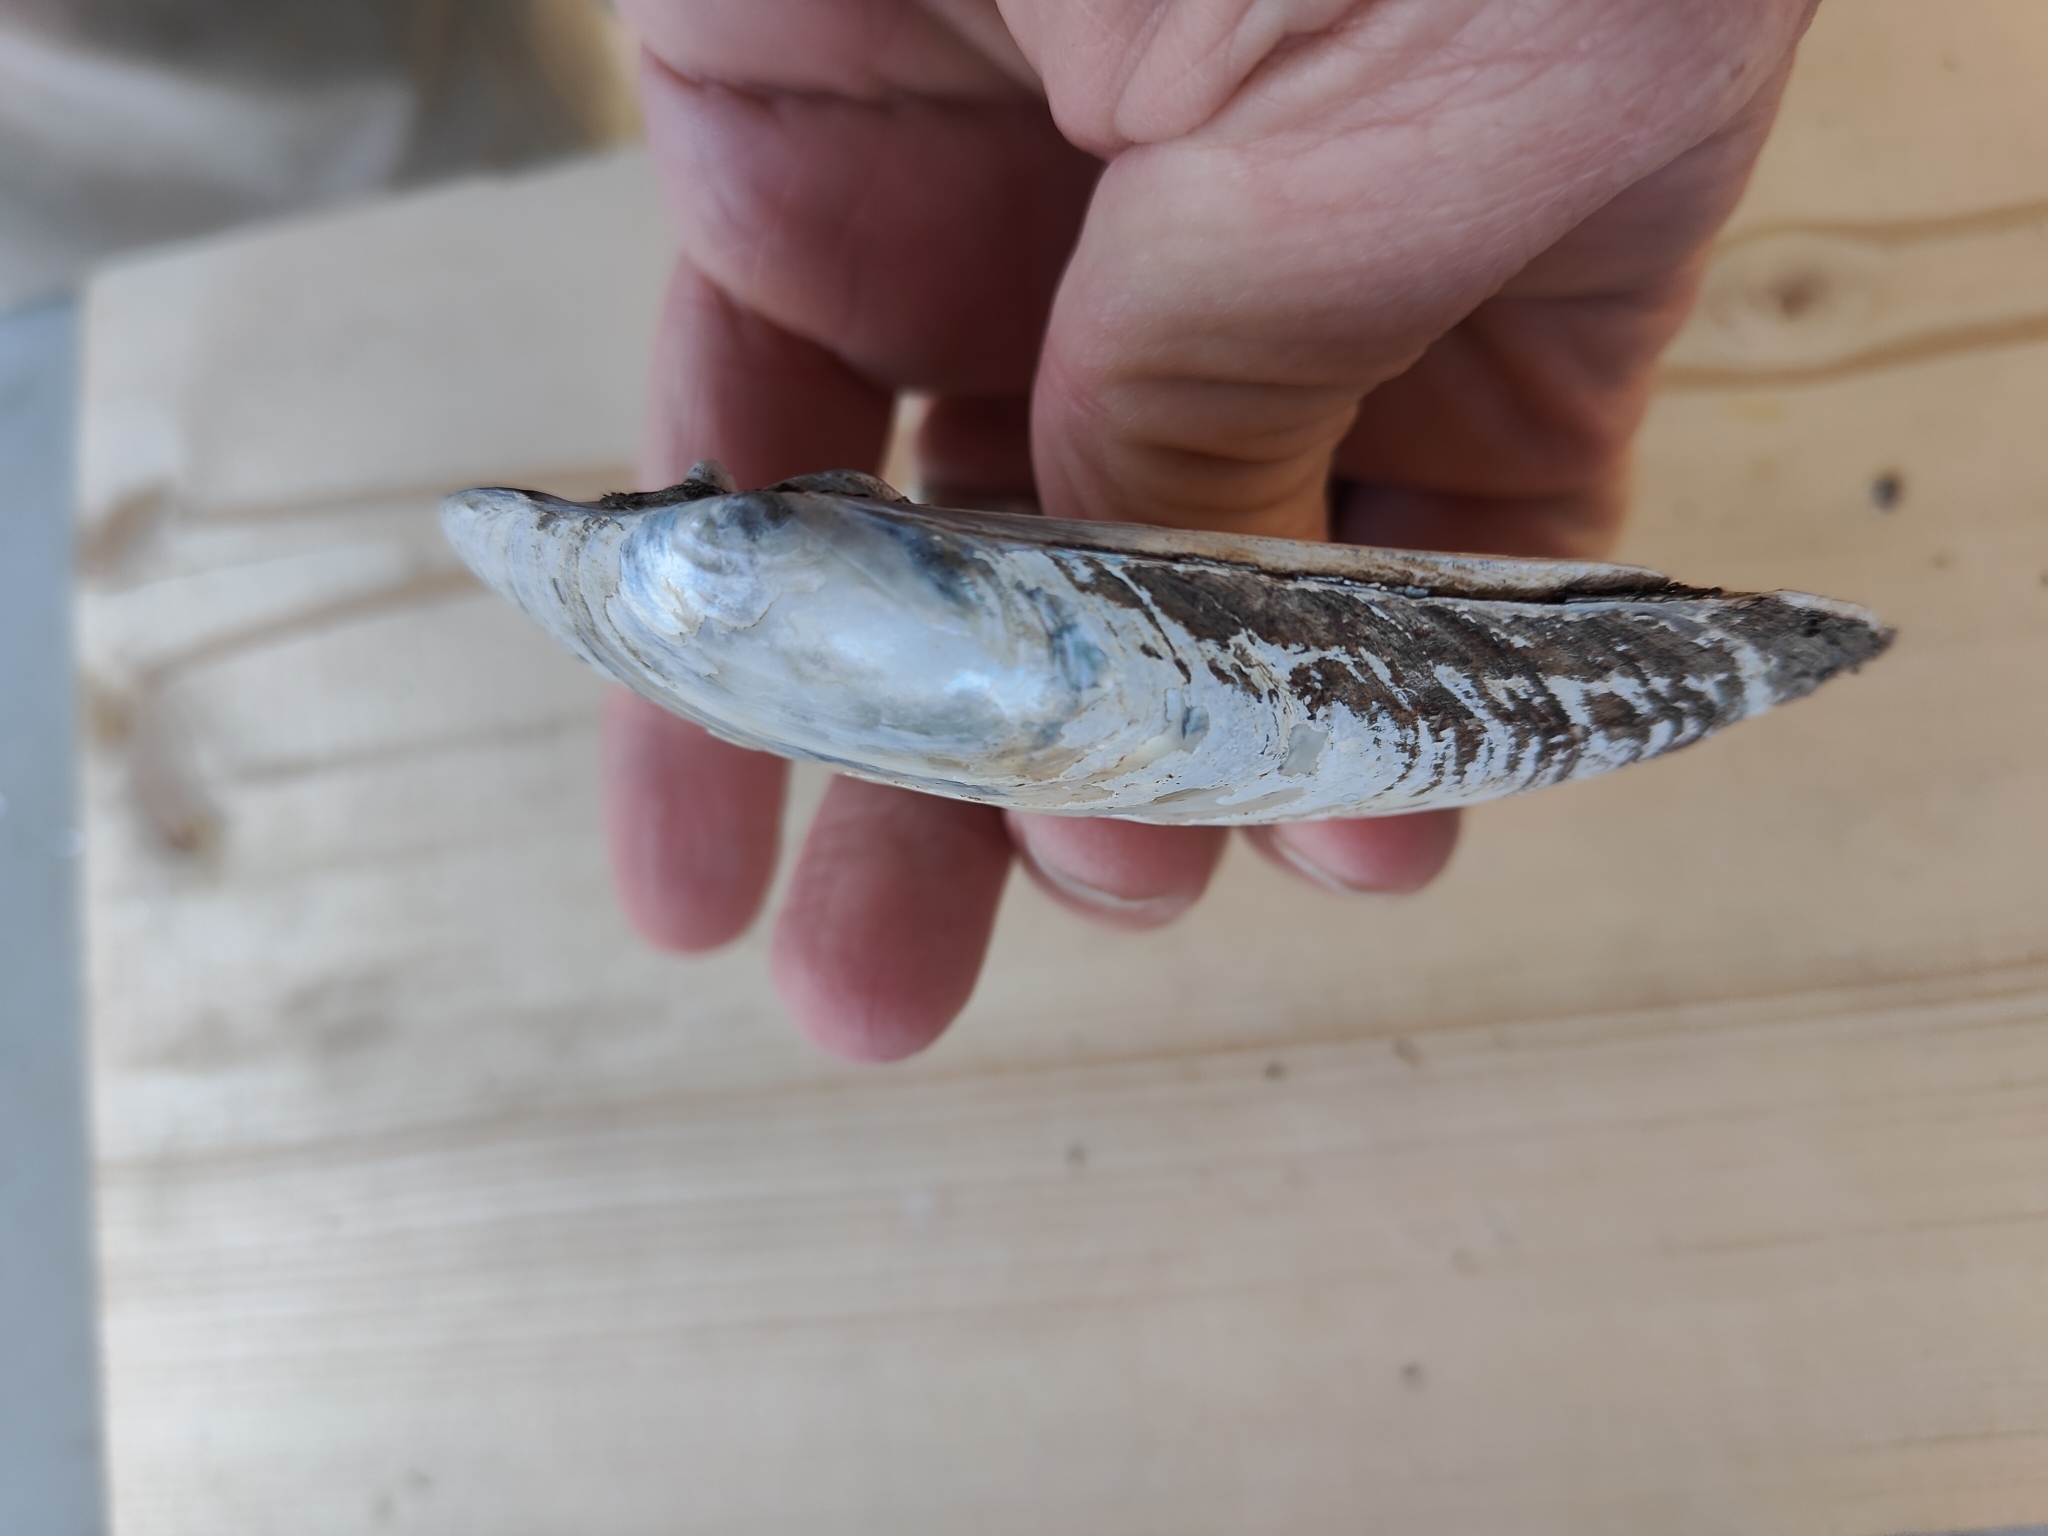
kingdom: Animalia
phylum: Mollusca
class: Bivalvia
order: Unionida
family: Unionidae
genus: Lampsilis
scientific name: Lampsilis siliquoidea
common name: Fatmucket
